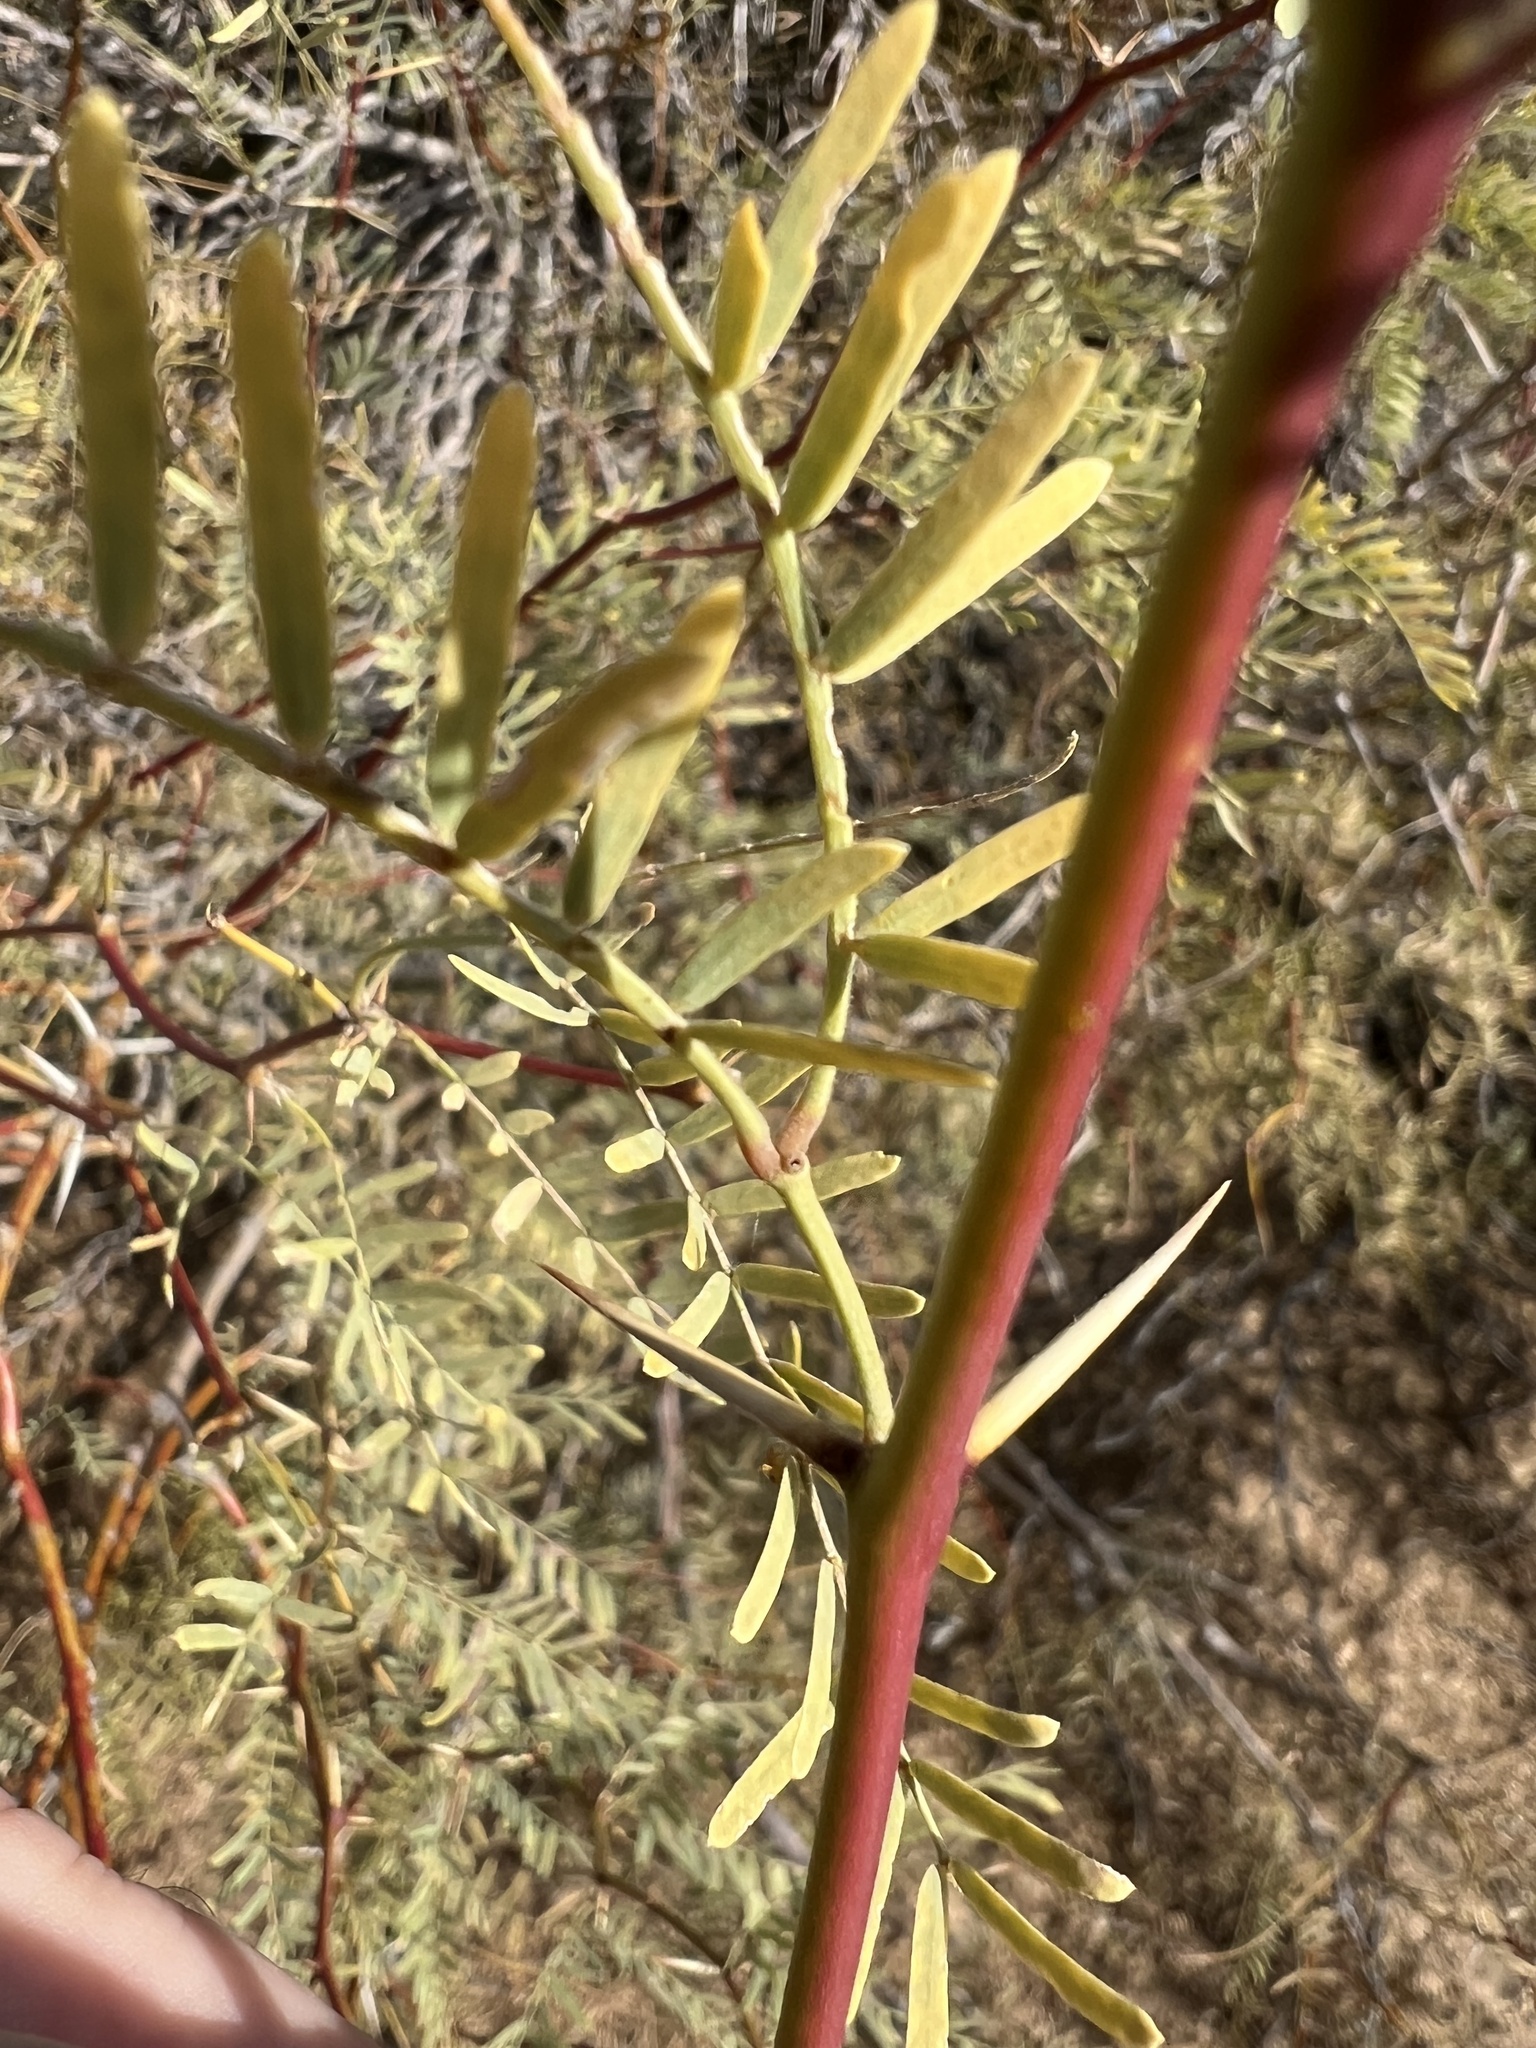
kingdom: Plantae
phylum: Tracheophyta
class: Magnoliopsida
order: Fabales
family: Fabaceae
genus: Prosopis
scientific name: Prosopis pubescens
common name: Screw-bean
